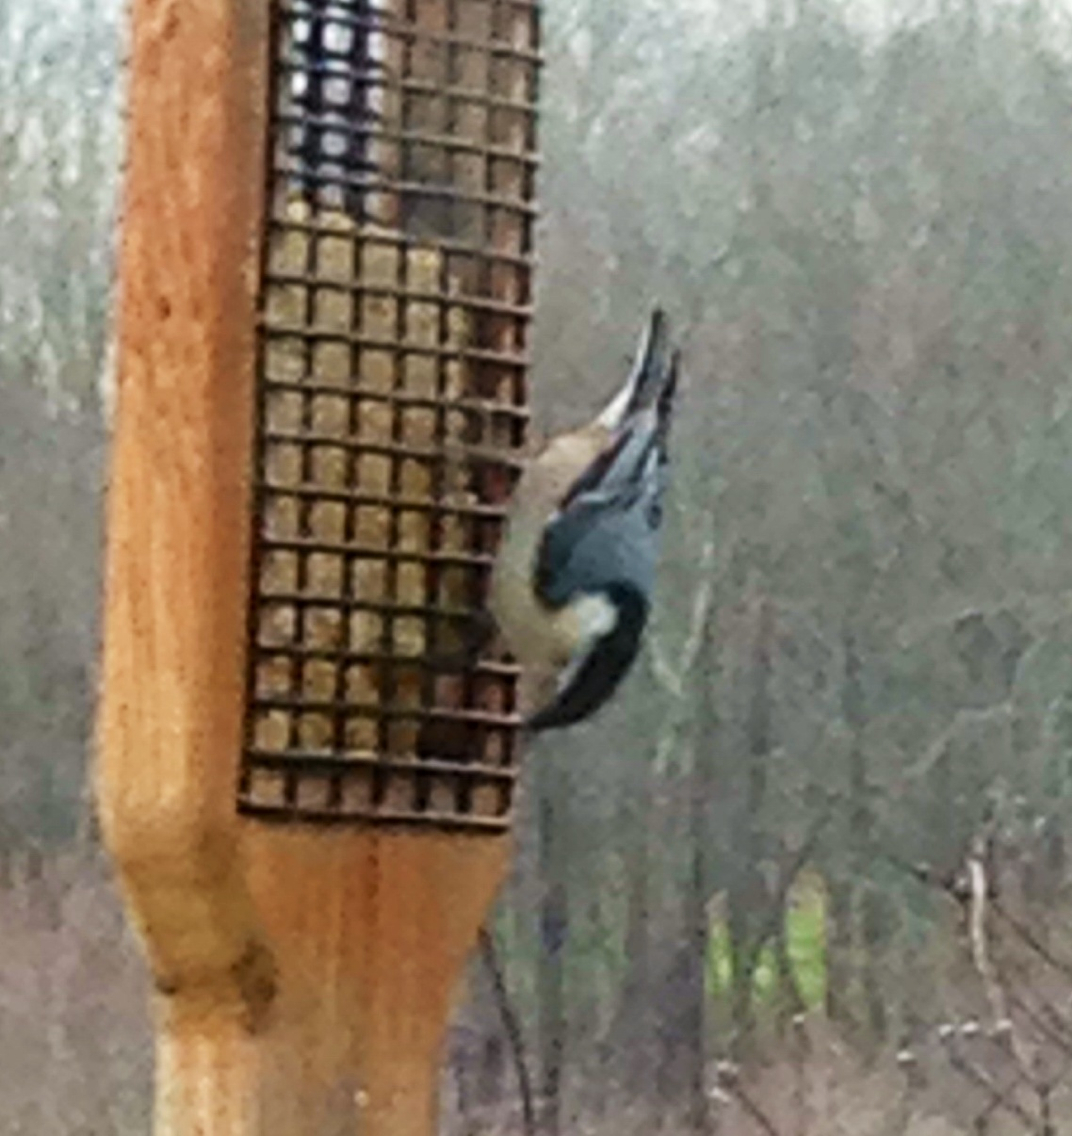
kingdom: Animalia
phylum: Chordata
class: Aves
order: Passeriformes
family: Sittidae
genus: Sitta
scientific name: Sitta carolinensis
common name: White-breasted nuthatch
